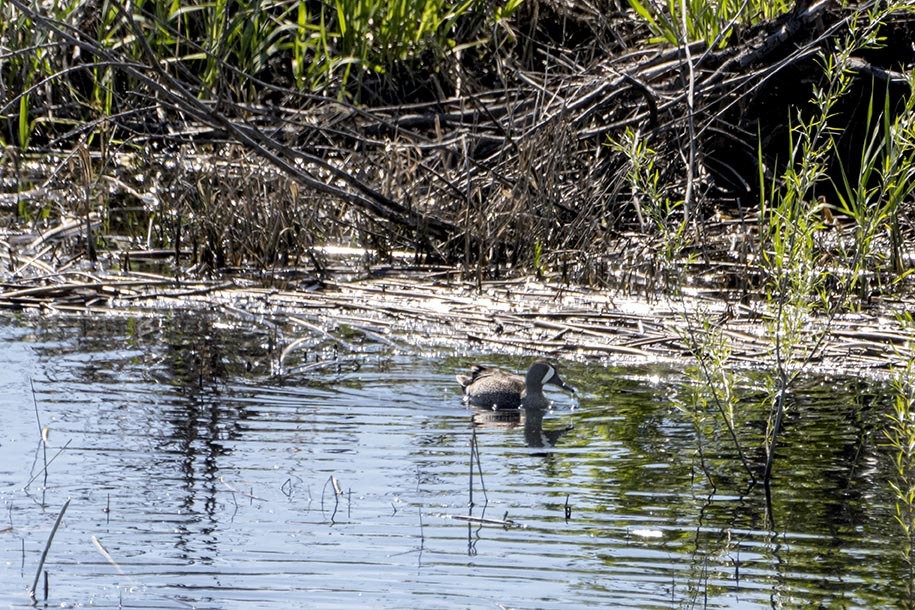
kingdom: Animalia
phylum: Chordata
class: Aves
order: Anseriformes
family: Anatidae
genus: Spatula
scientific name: Spatula discors
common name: Blue-winged teal
